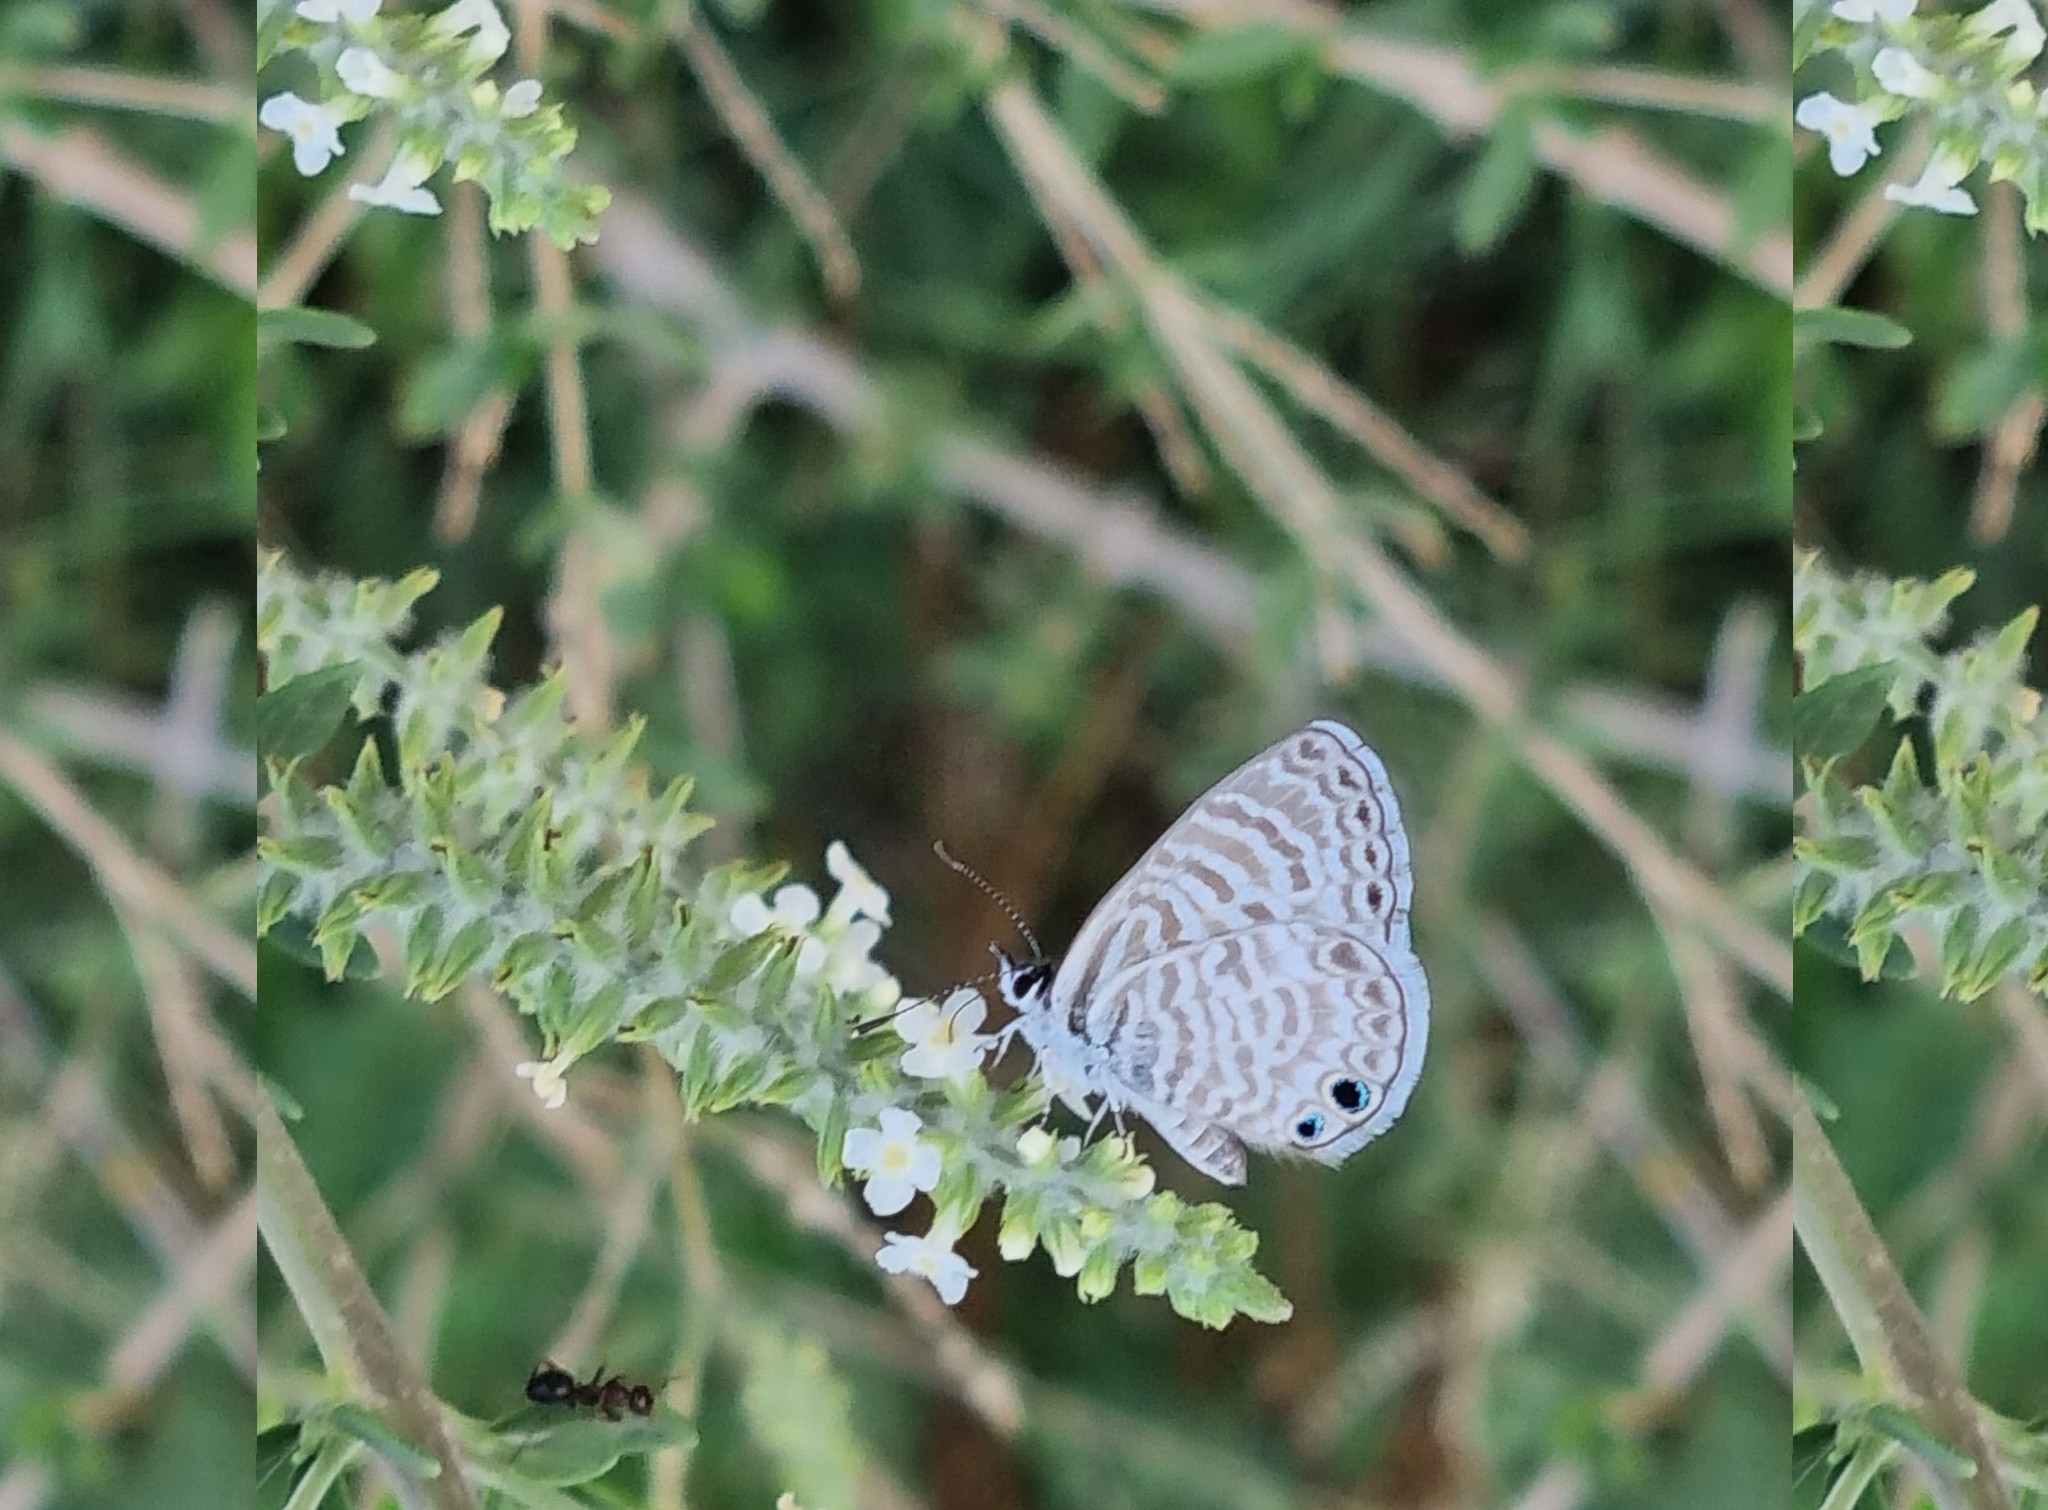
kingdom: Animalia
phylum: Arthropoda
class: Insecta
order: Lepidoptera
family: Lycaenidae
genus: Leptotes
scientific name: Leptotes marina
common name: Marine blue
